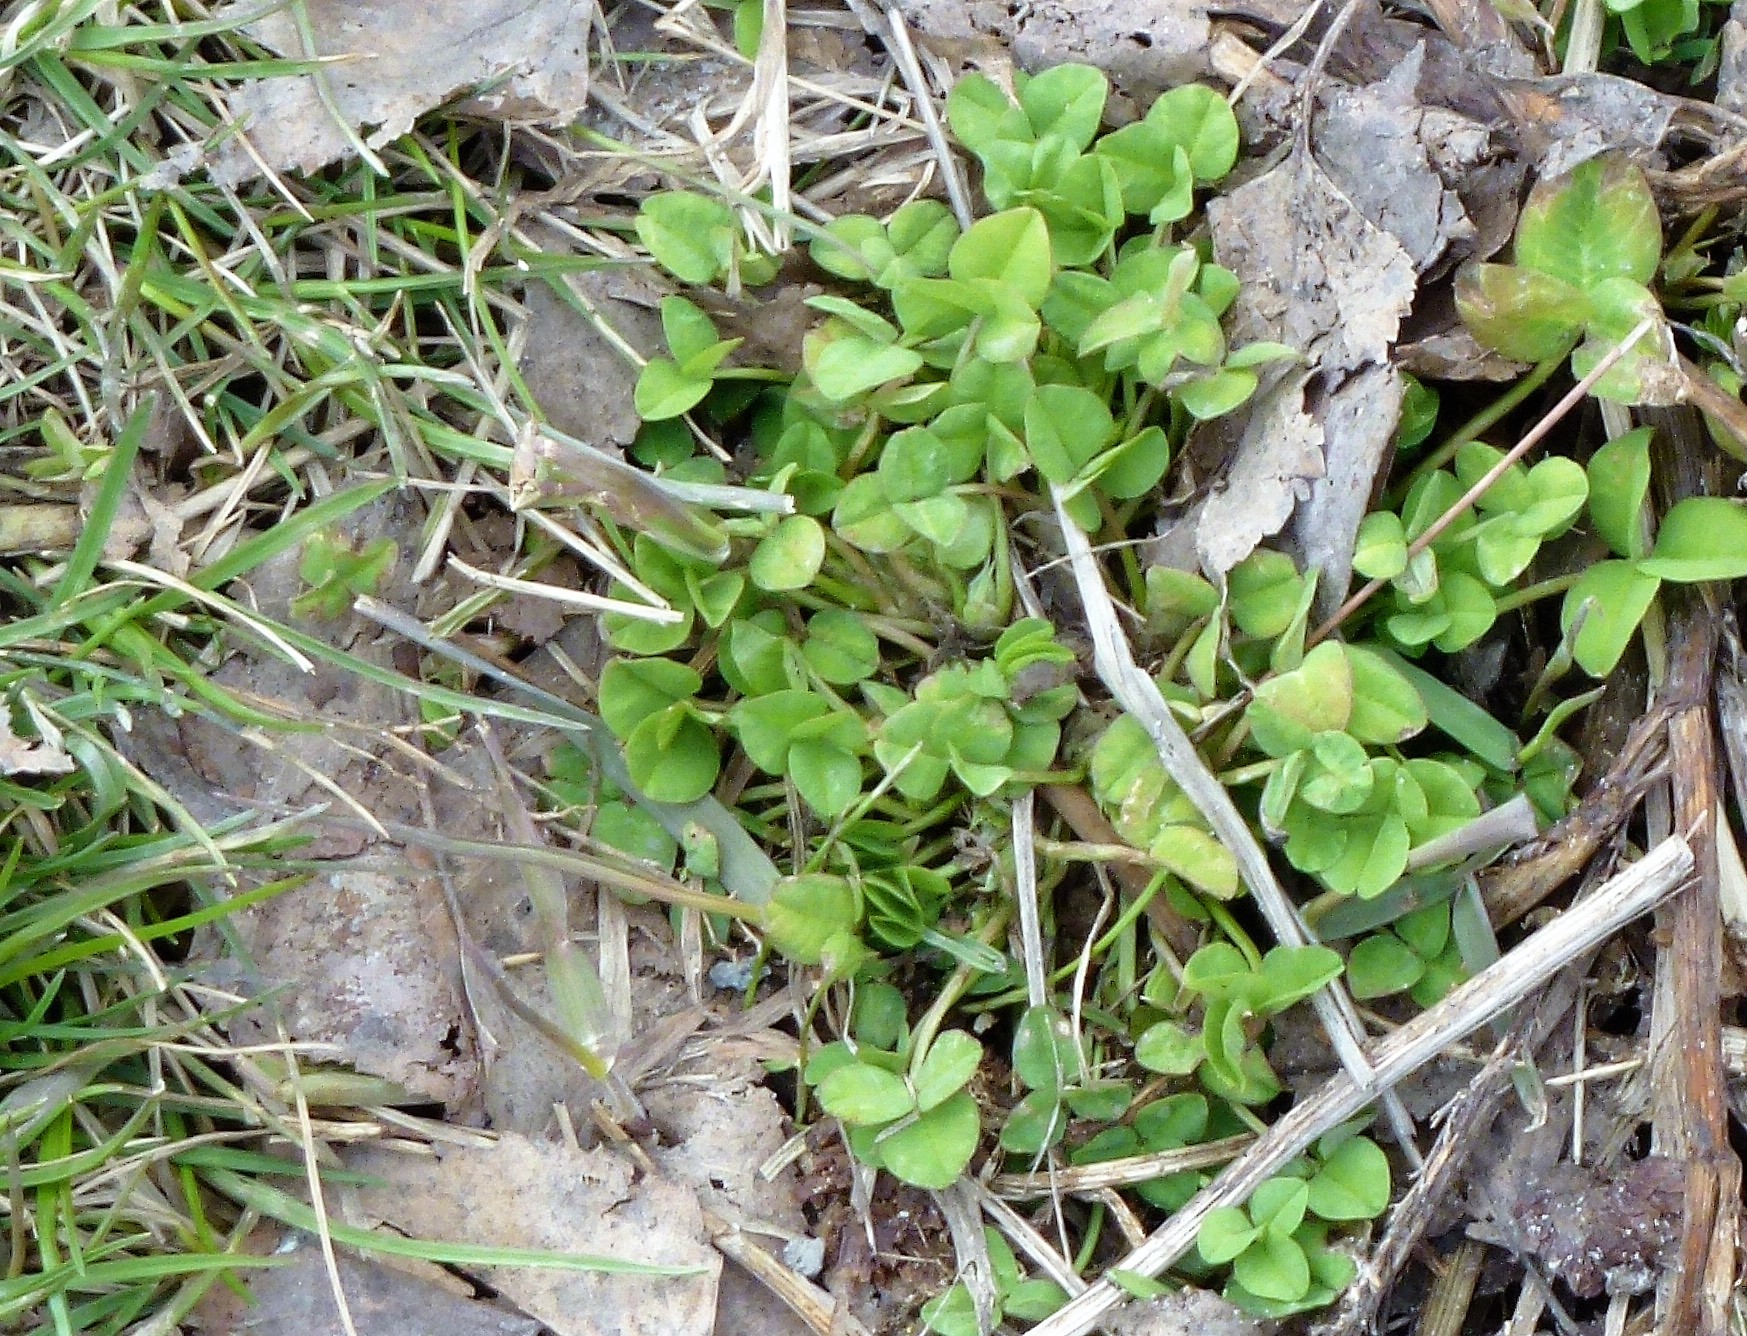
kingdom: Plantae
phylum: Tracheophyta
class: Magnoliopsida
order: Fabales
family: Fabaceae
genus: Trifolium
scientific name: Trifolium repens
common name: White clover
